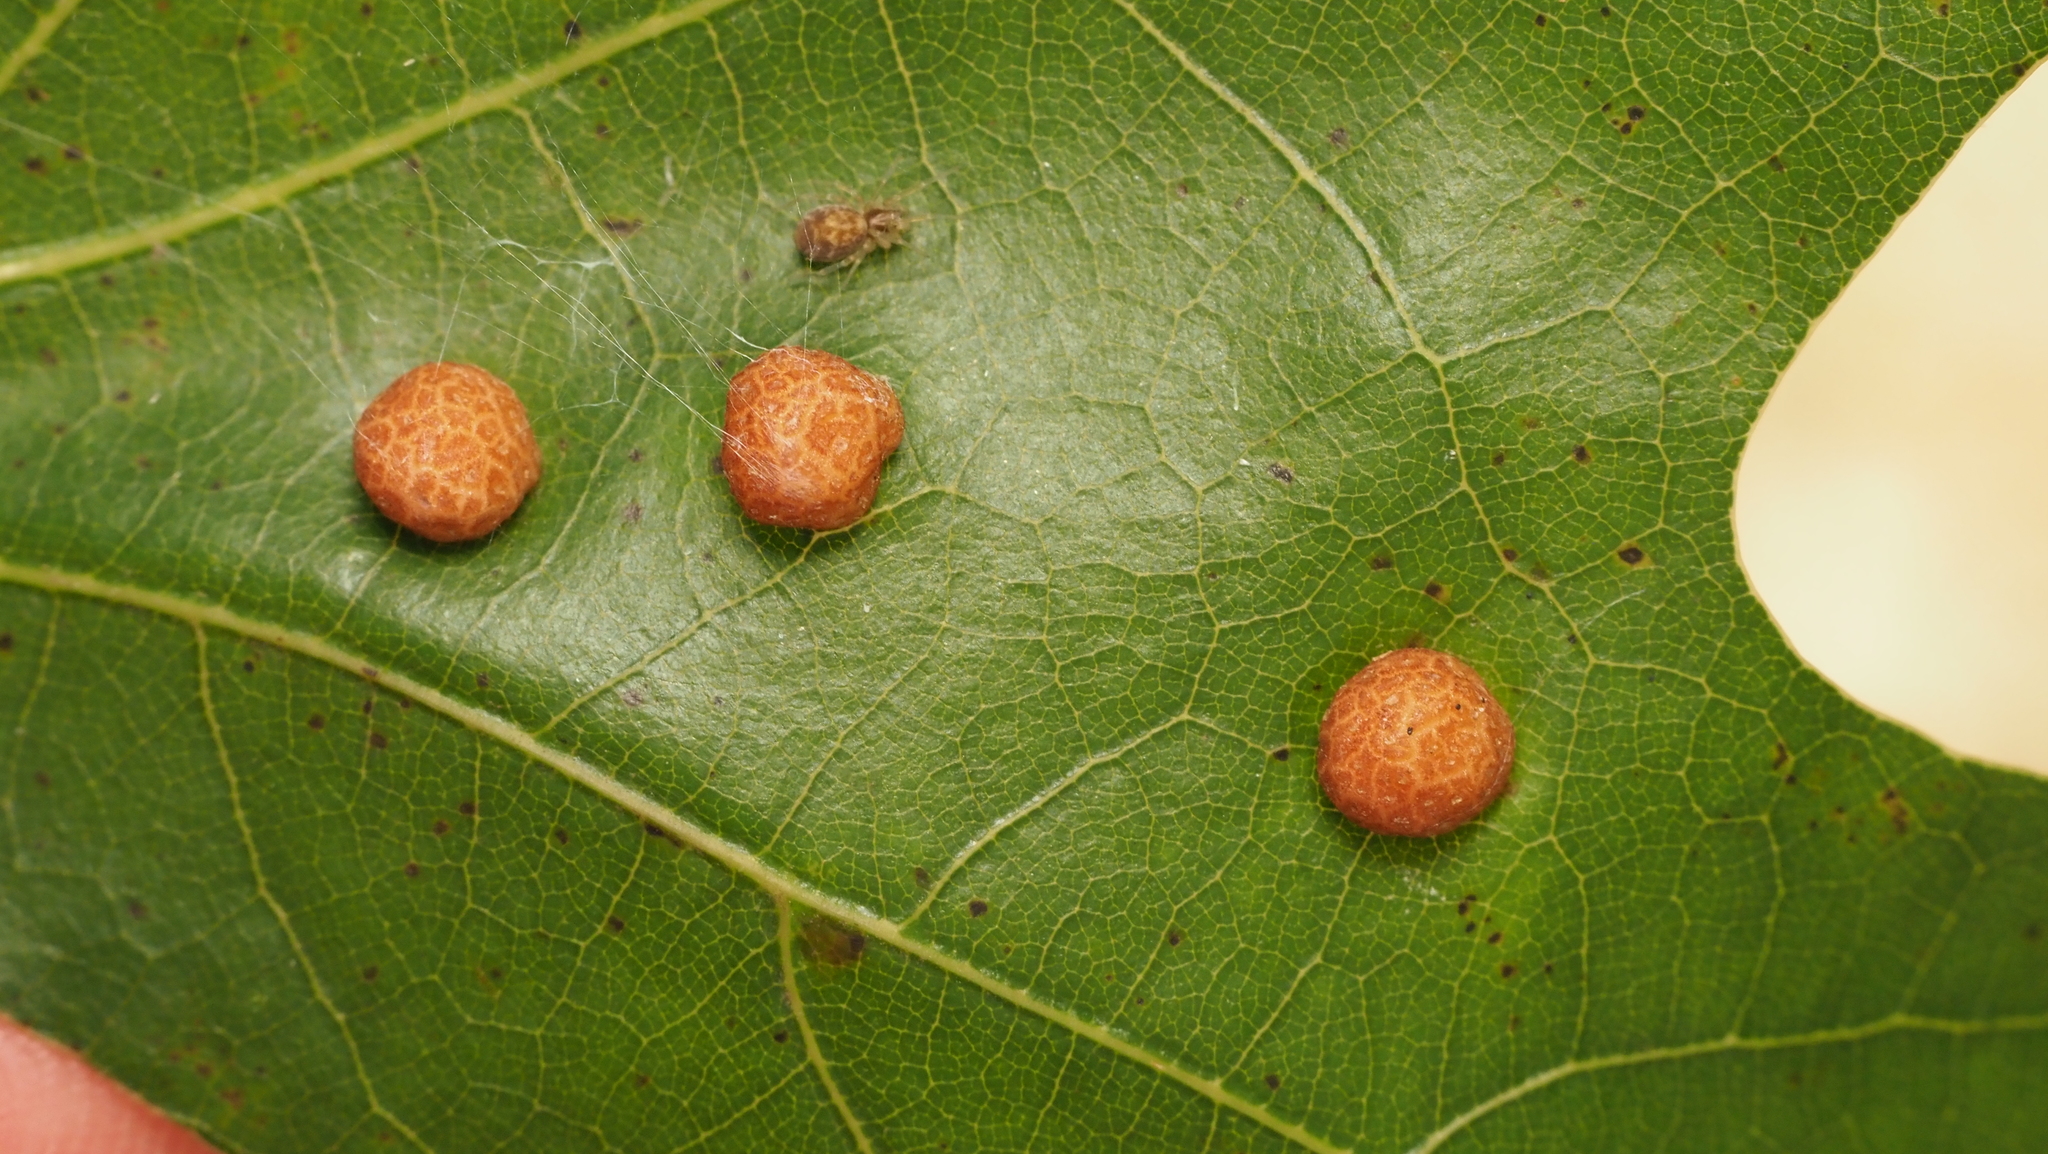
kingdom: Animalia
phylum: Arthropoda
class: Insecta
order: Diptera
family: Cecidomyiidae
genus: Polystepha
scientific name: Polystepha pilulae
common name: Oak leaf gall midge
